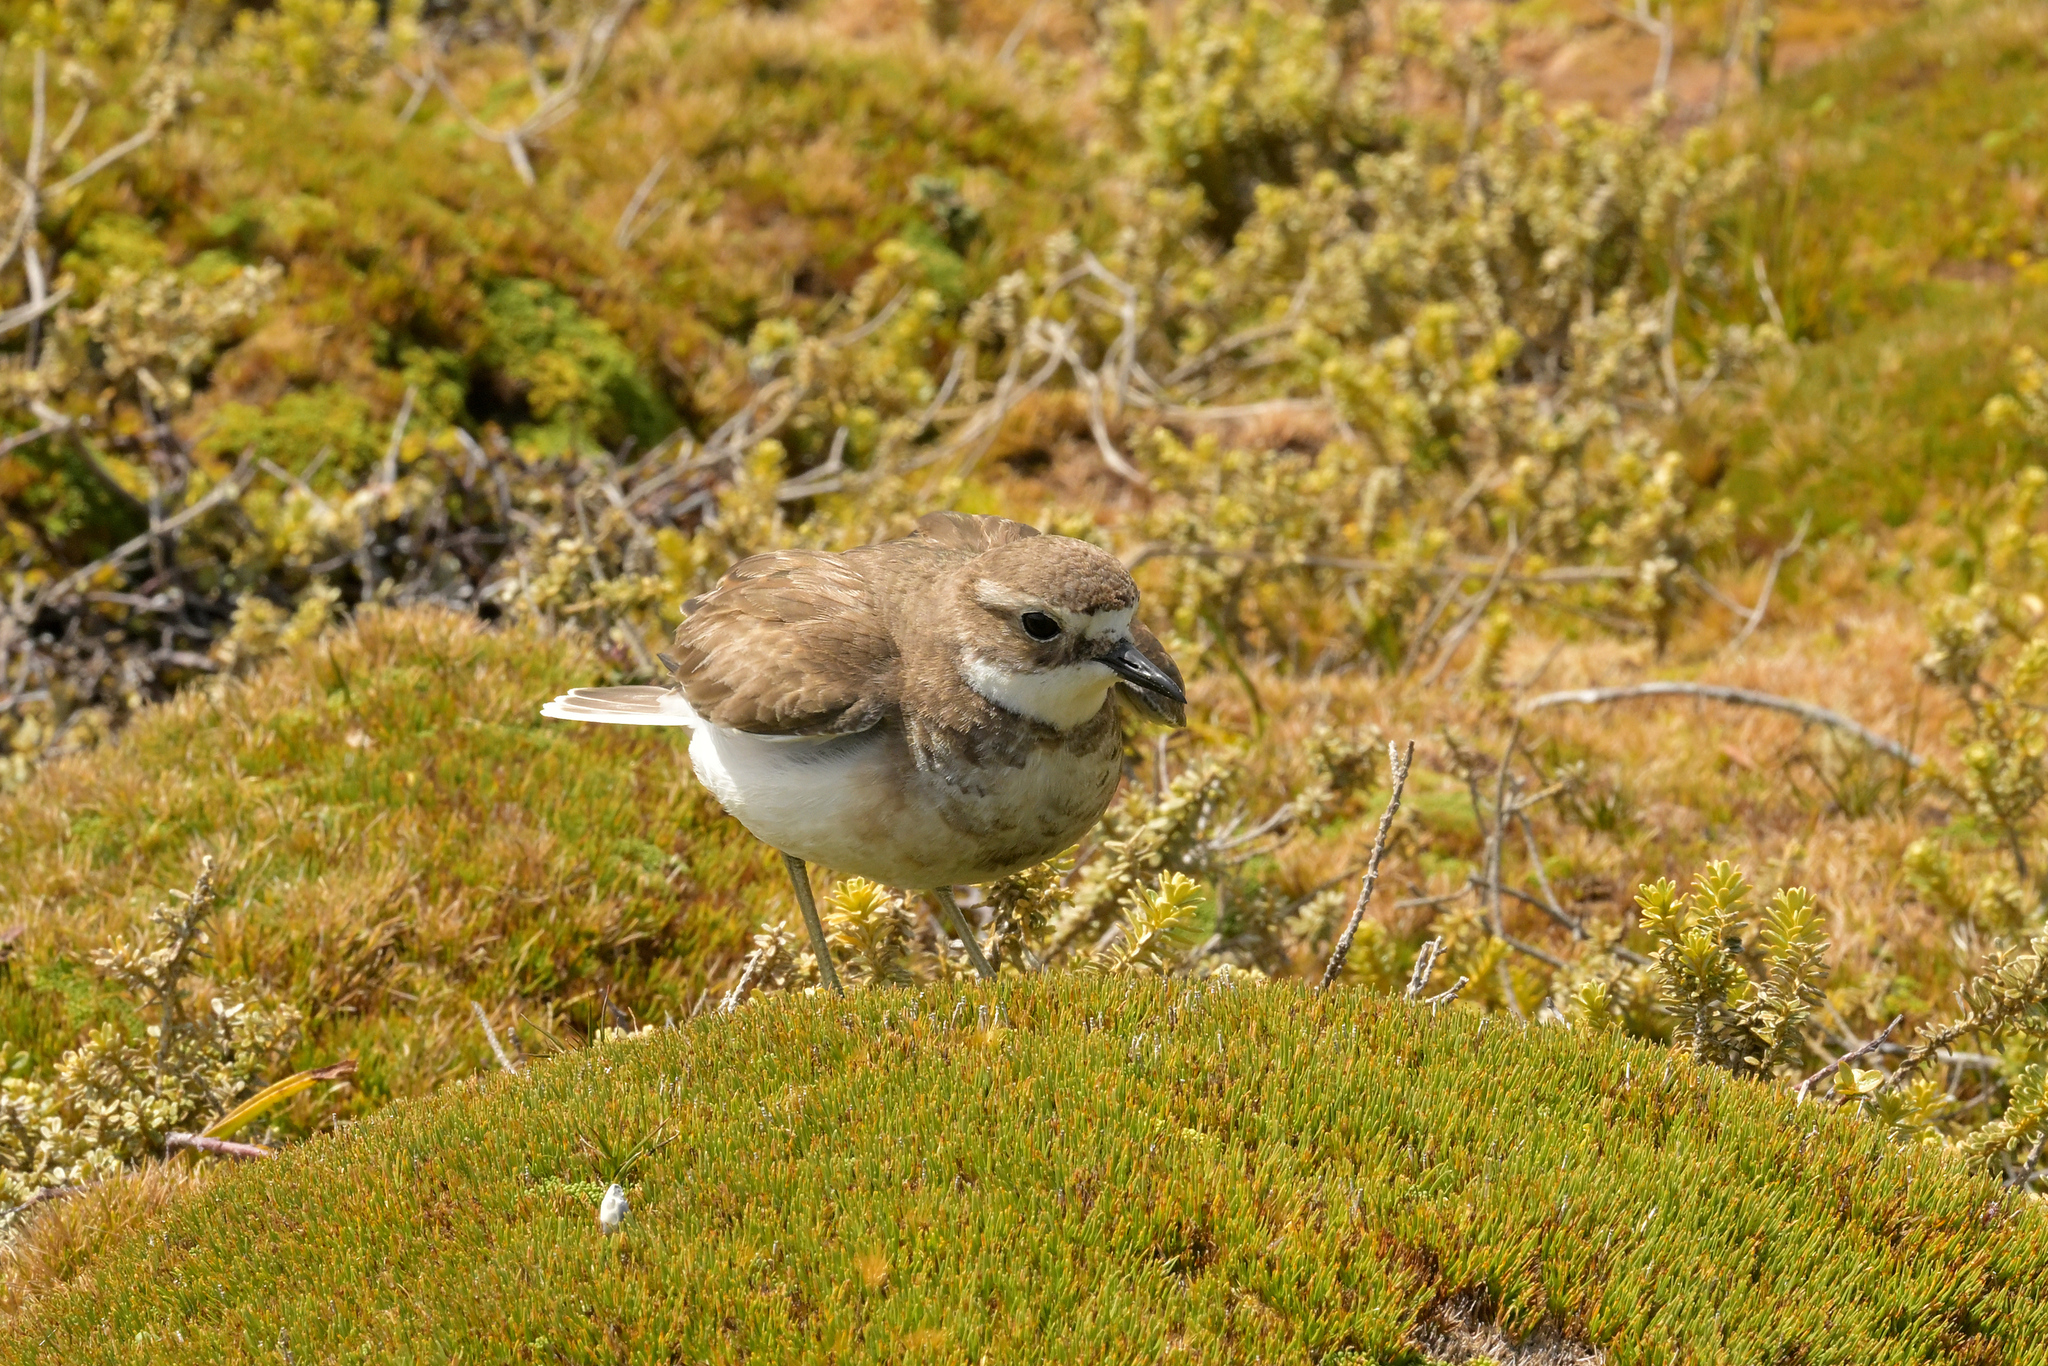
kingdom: Animalia
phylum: Chordata
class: Aves
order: Charadriiformes
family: Charadriidae
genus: Anarhynchus
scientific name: Anarhynchus
